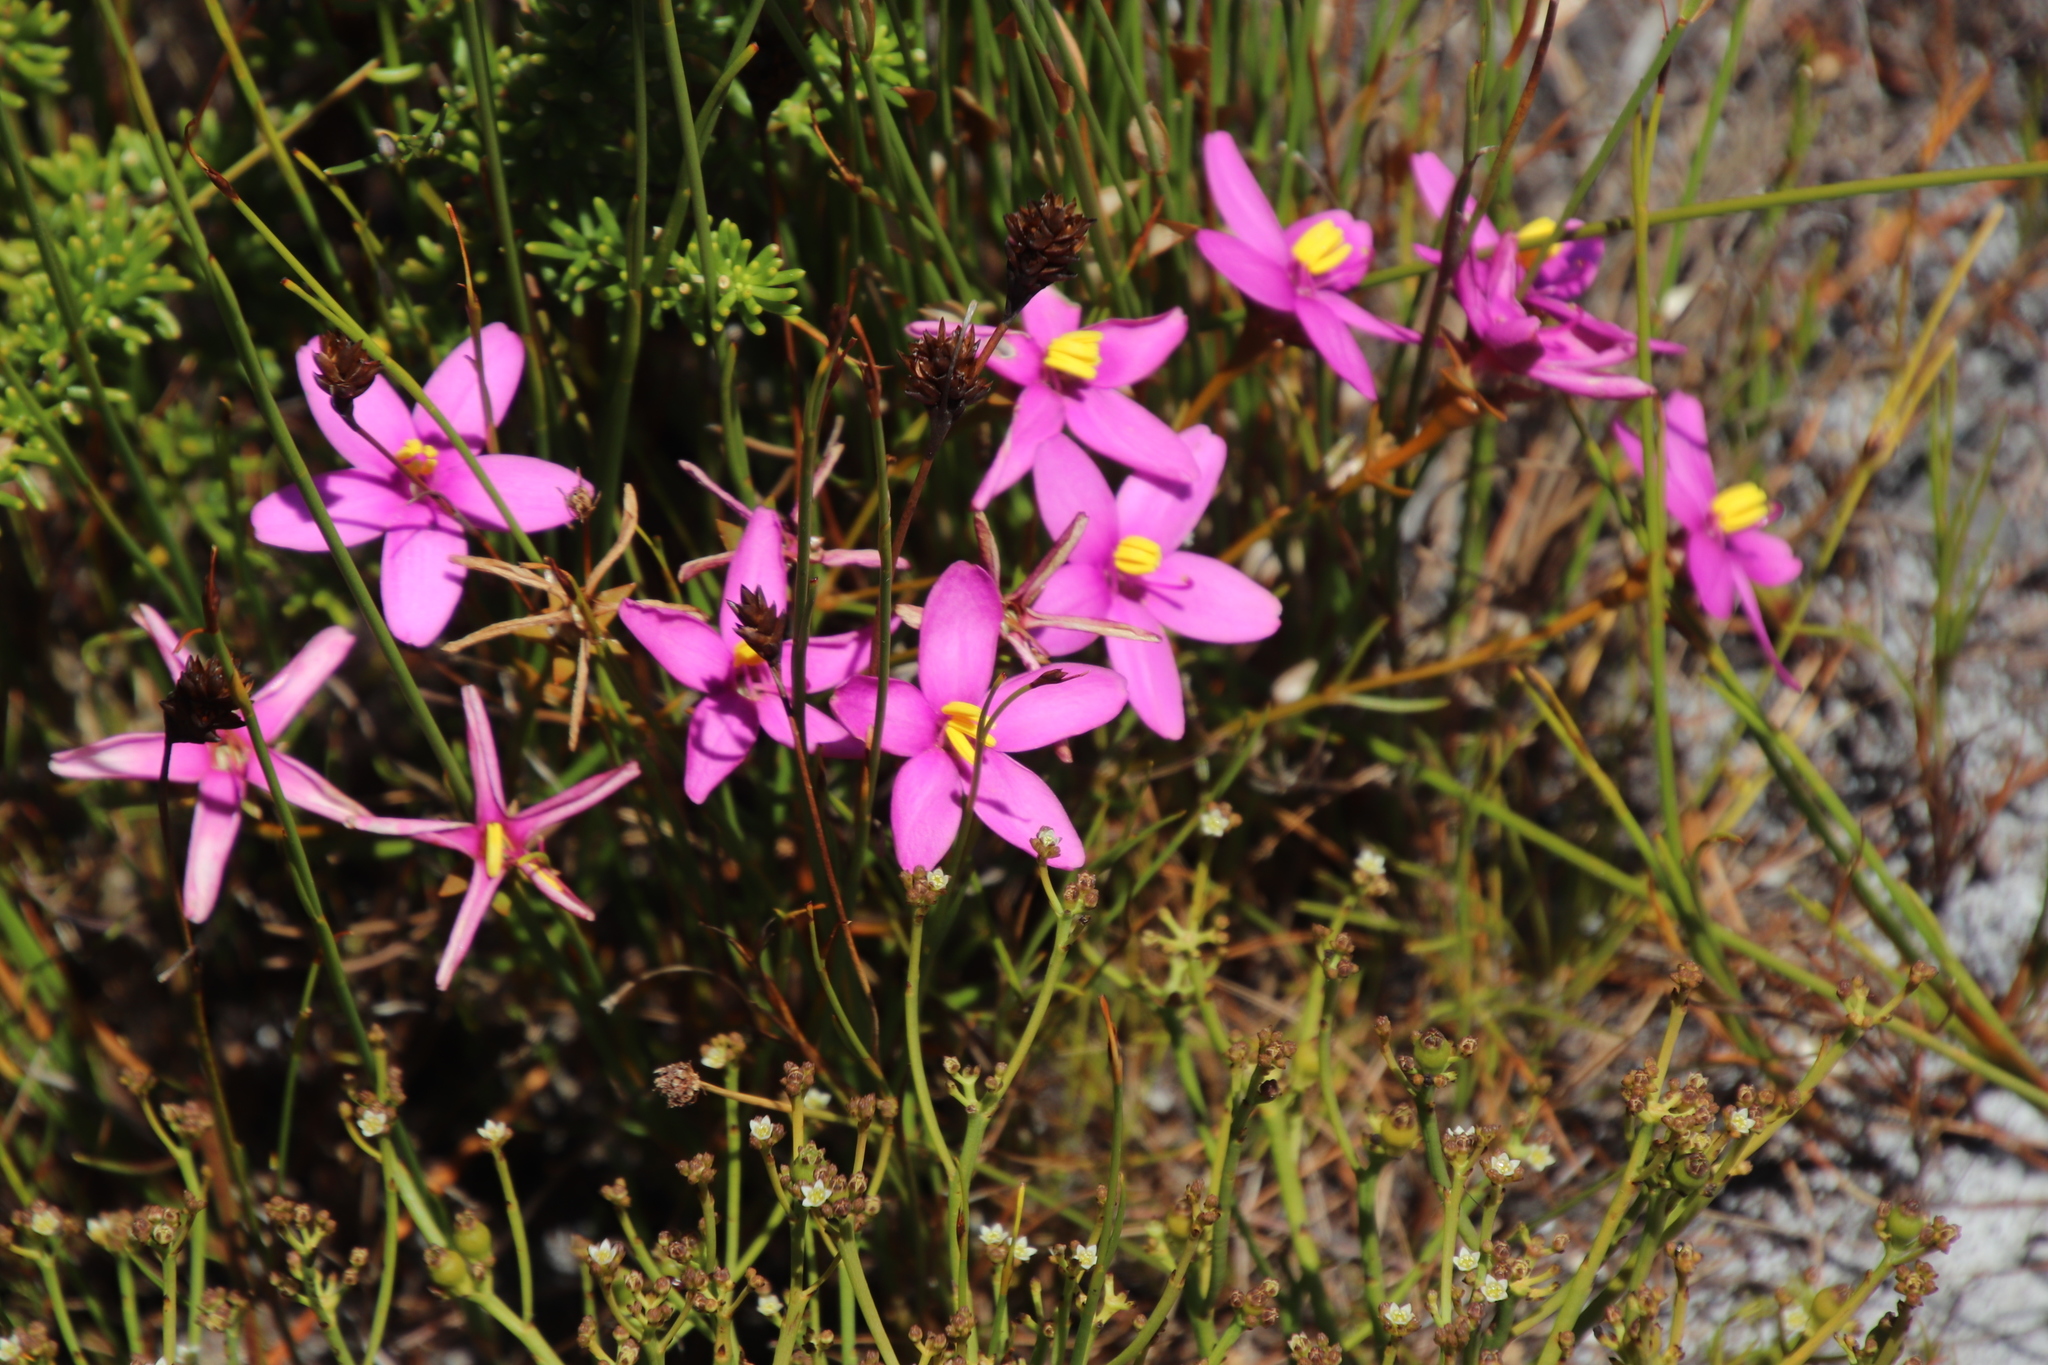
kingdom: Plantae
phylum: Tracheophyta
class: Magnoliopsida
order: Gentianales
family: Gentianaceae
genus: Chironia
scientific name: Chironia linoides
